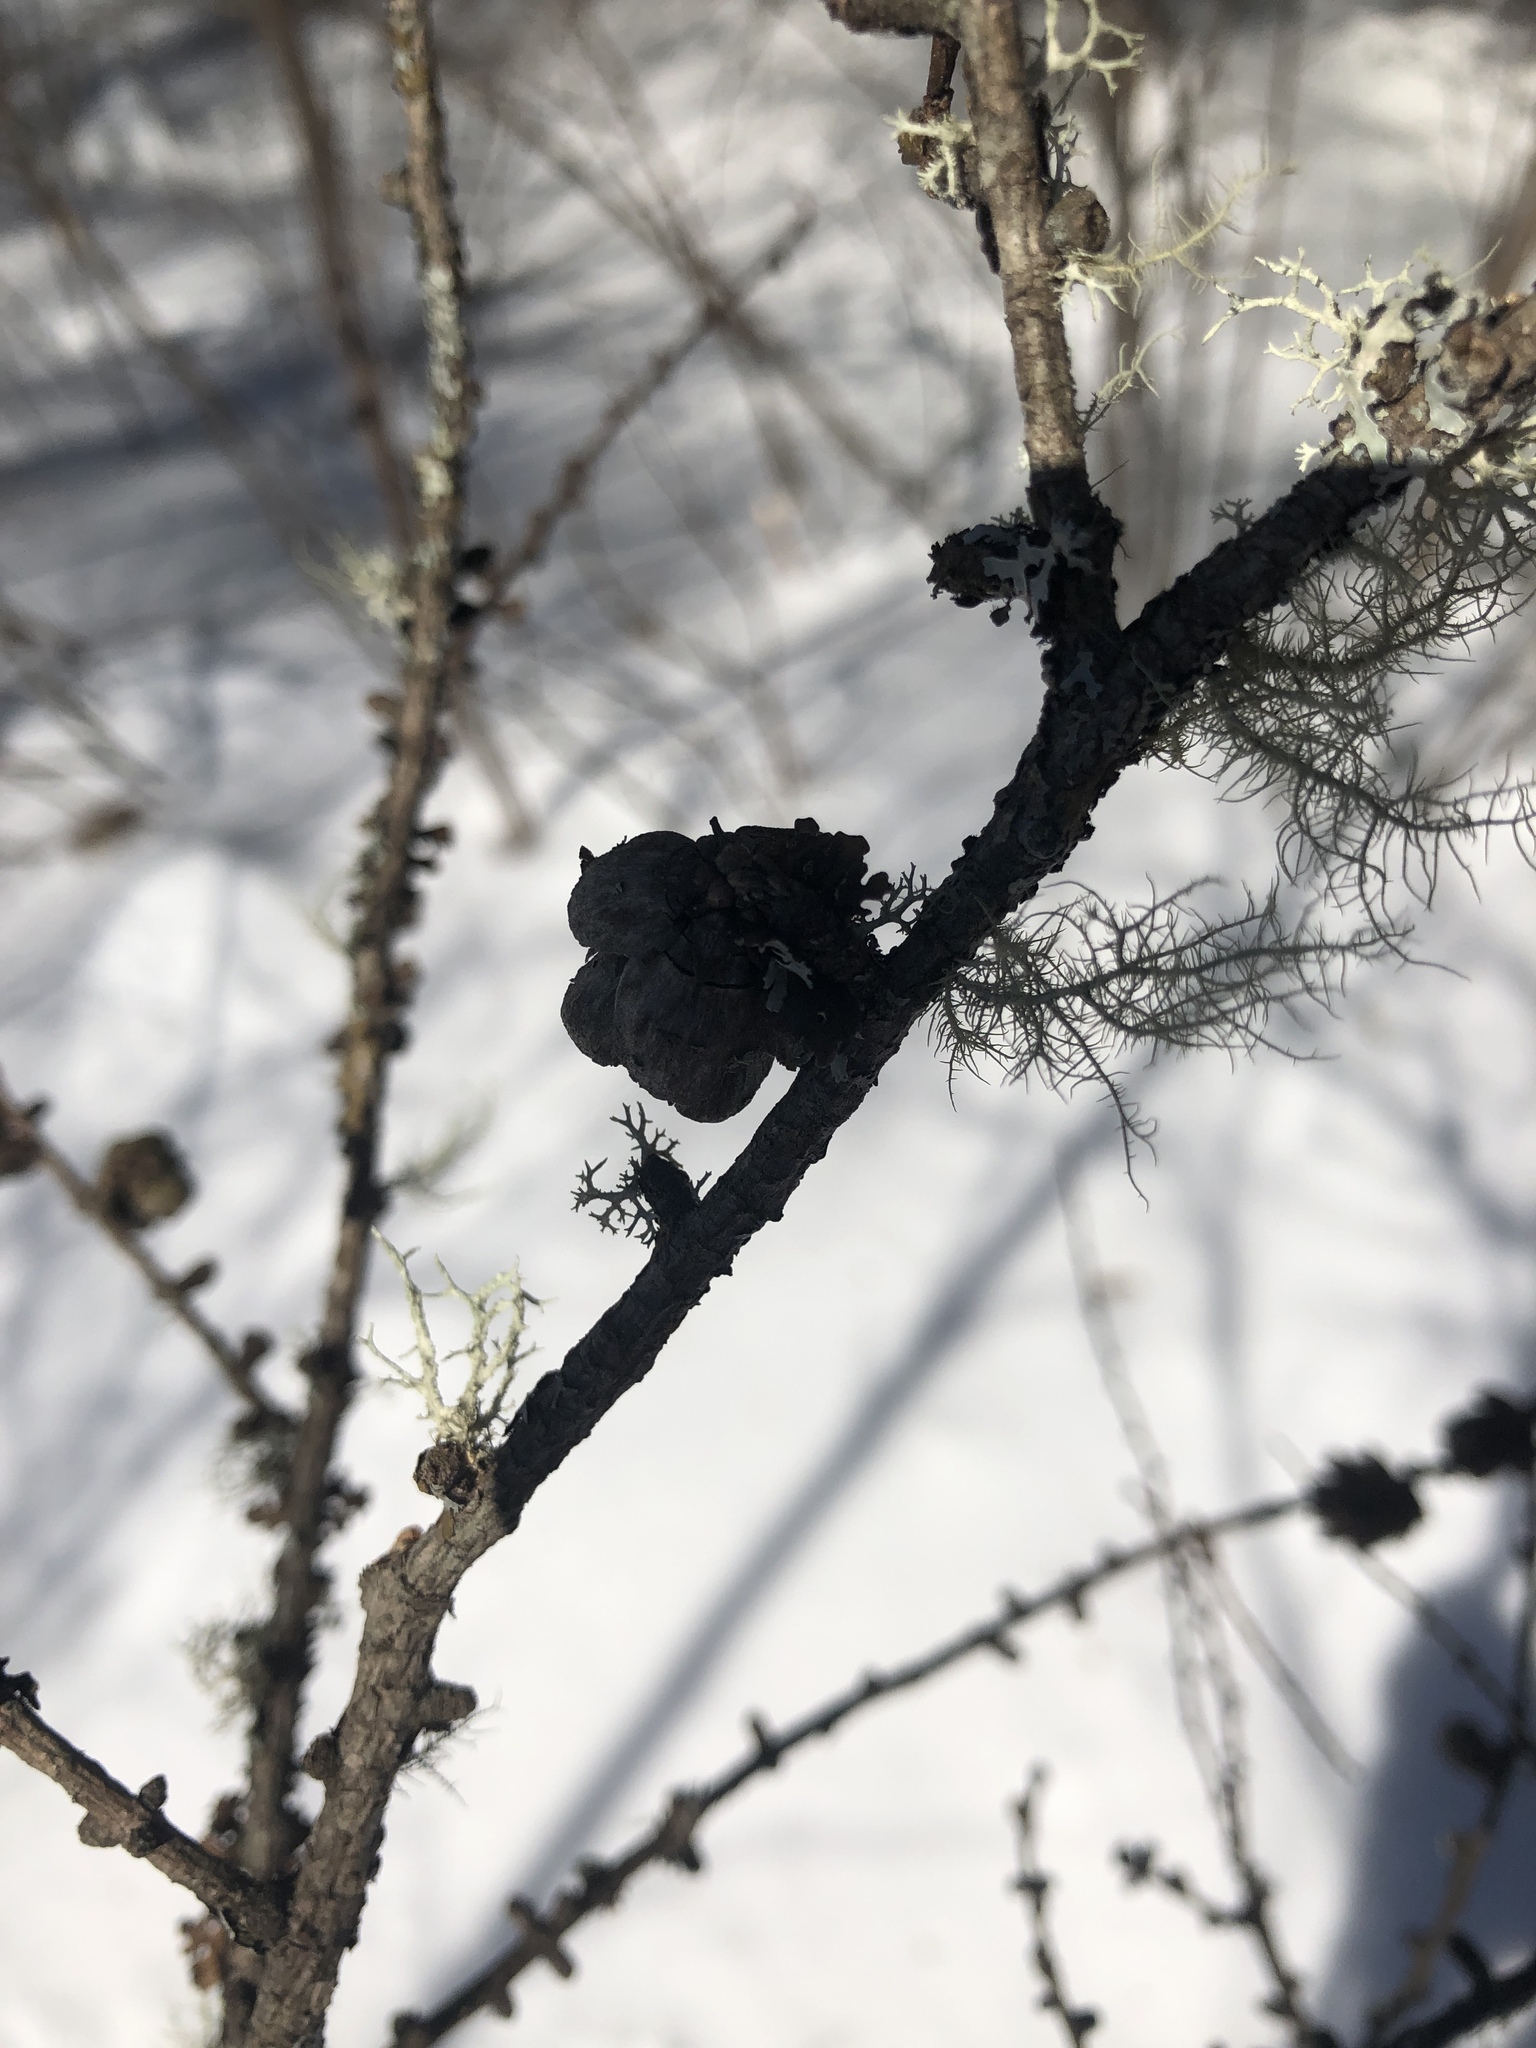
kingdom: Plantae
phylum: Tracheophyta
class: Pinopsida
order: Pinales
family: Pinaceae
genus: Larix
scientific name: Larix laricina
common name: American larch
